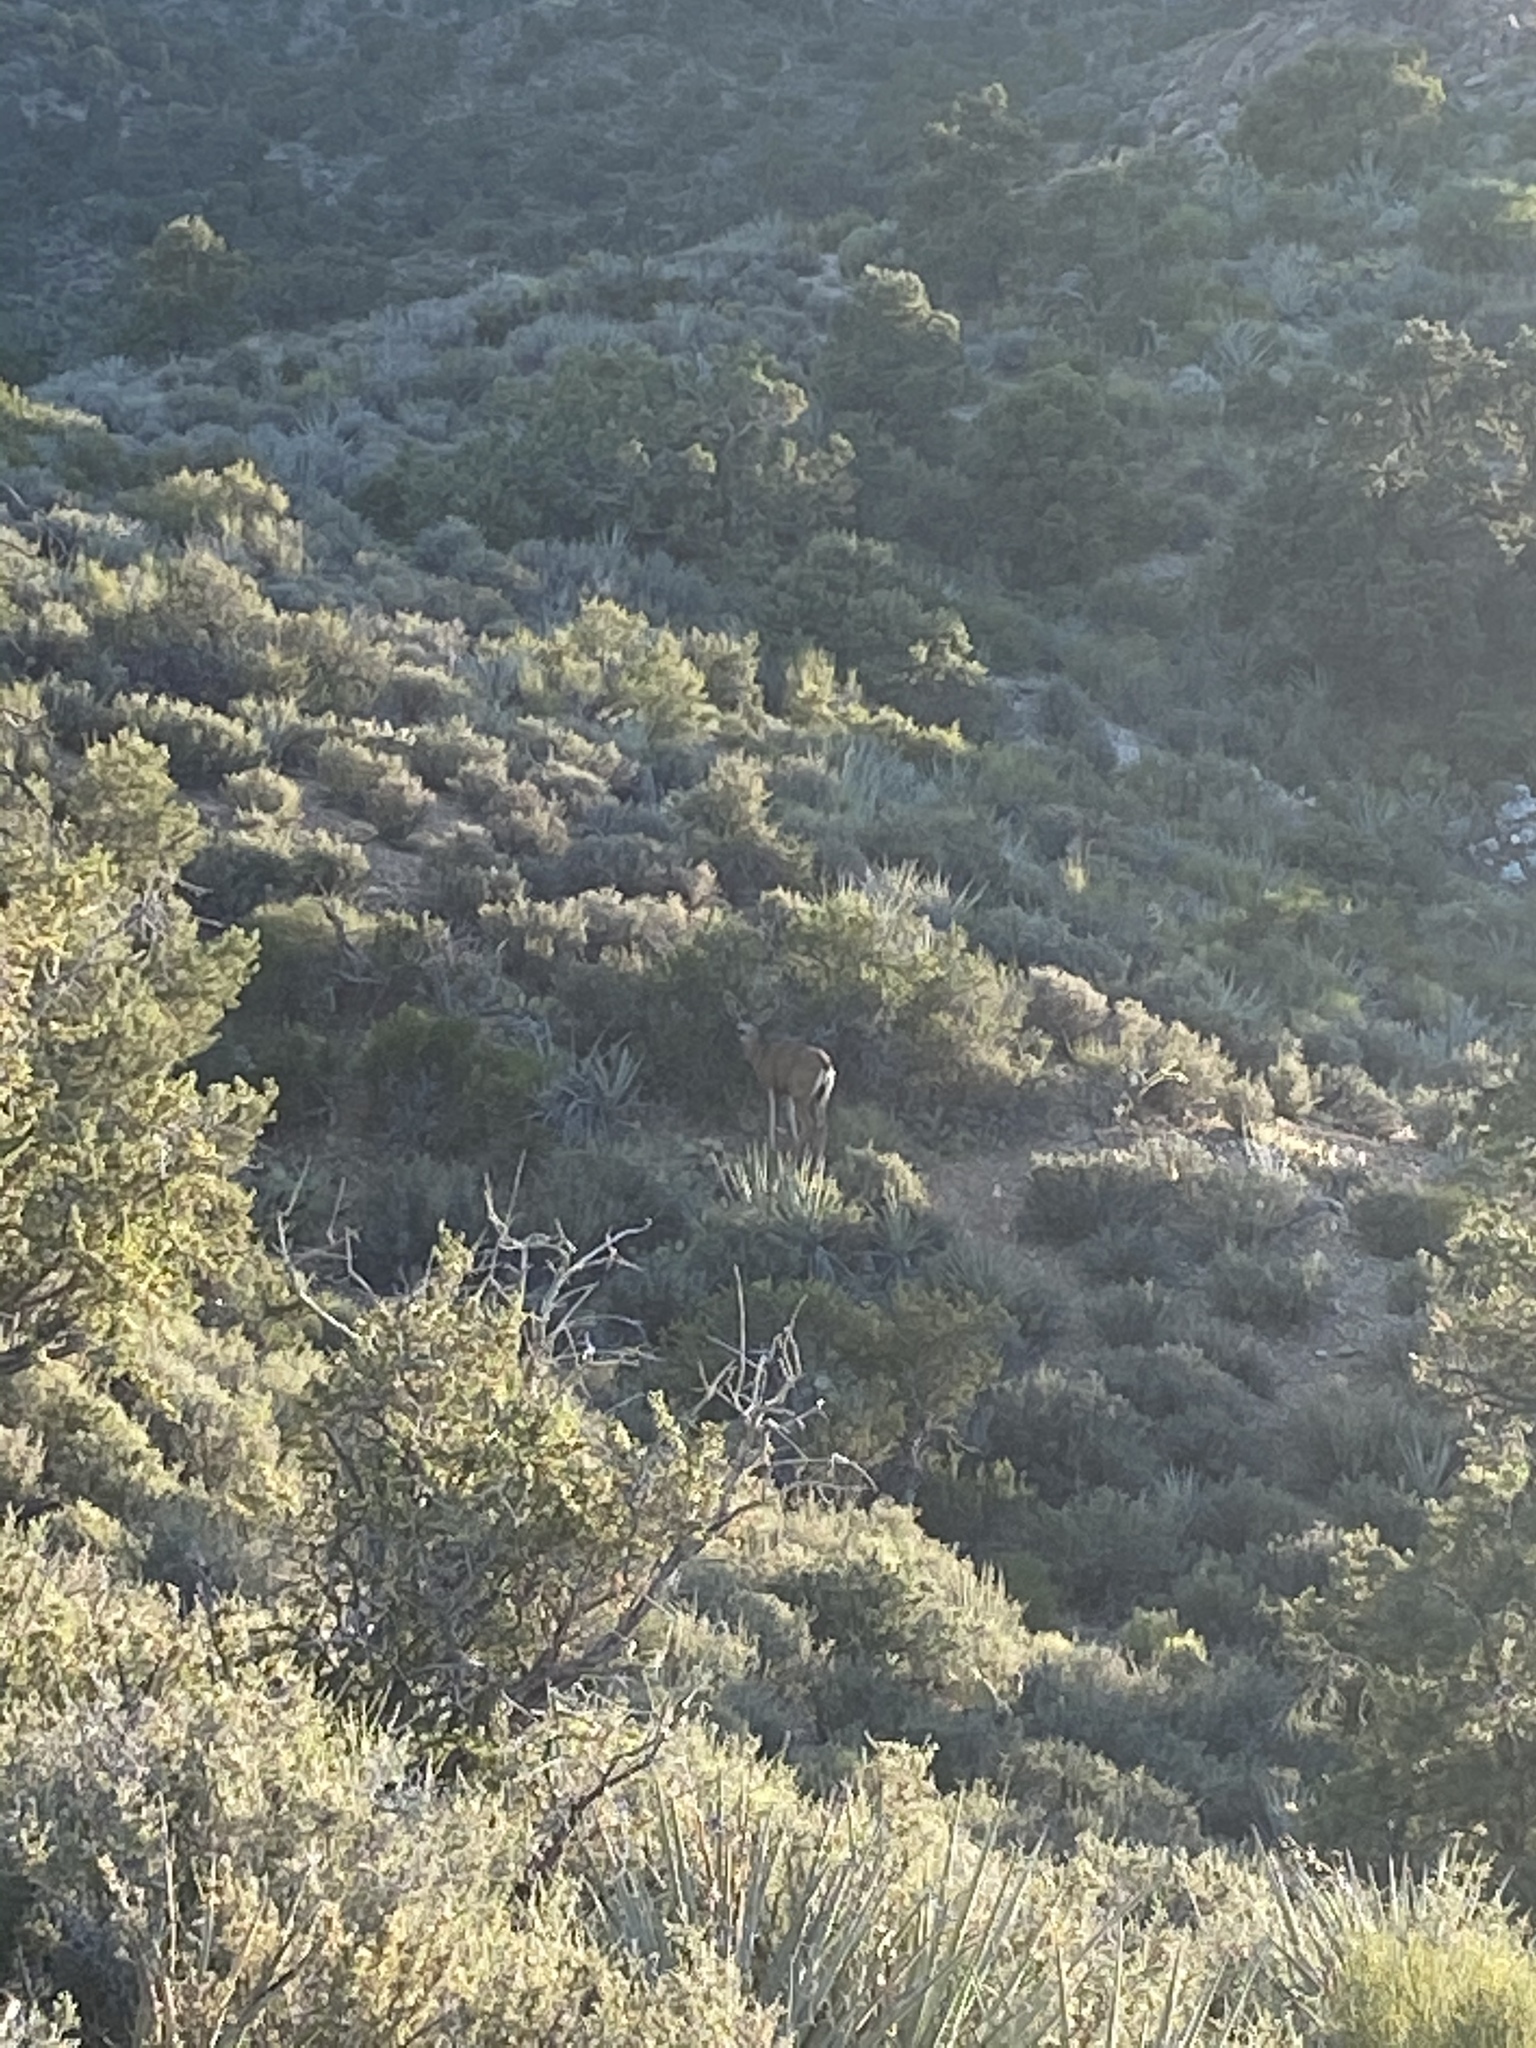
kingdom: Animalia
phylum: Chordata
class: Mammalia
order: Artiodactyla
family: Cervidae
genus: Odocoileus
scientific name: Odocoileus hemionus
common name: Mule deer
